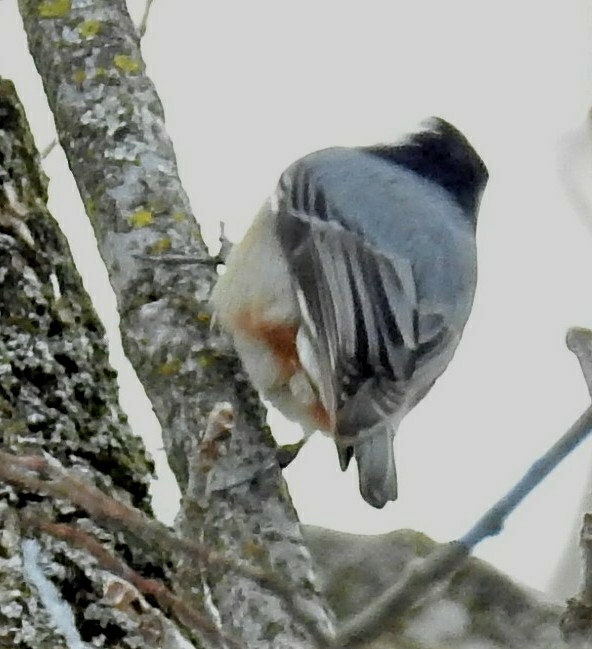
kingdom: Animalia
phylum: Chordata
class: Aves
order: Passeriformes
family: Sittidae
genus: Sitta
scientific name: Sitta carolinensis
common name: White-breasted nuthatch
